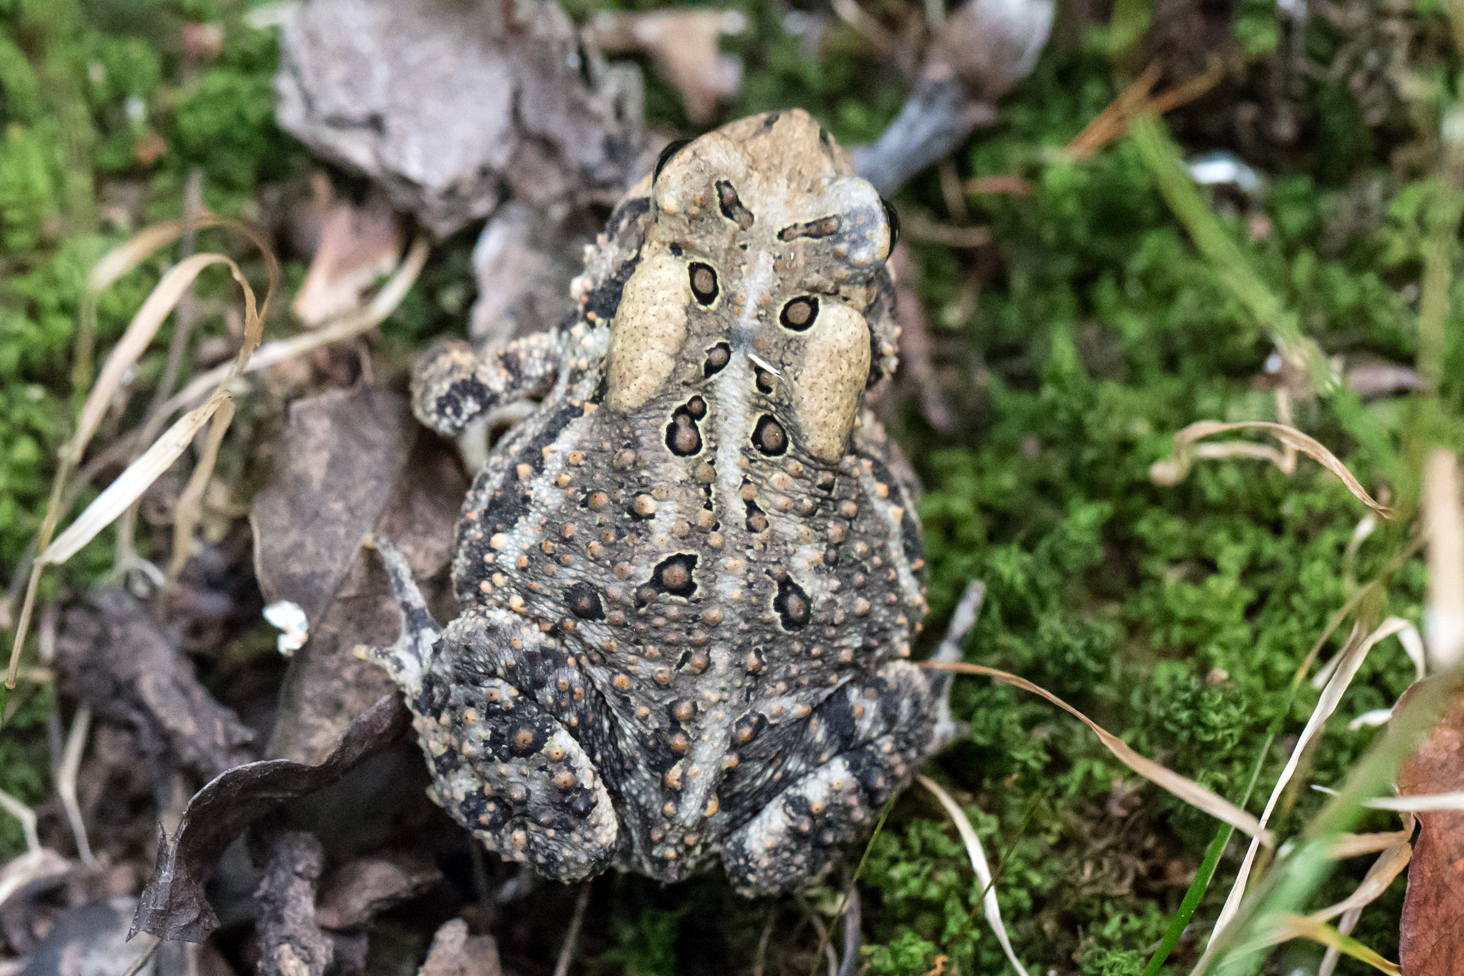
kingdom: Animalia
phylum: Chordata
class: Amphibia
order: Anura
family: Bufonidae
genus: Anaxyrus
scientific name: Anaxyrus americanus
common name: American toad
